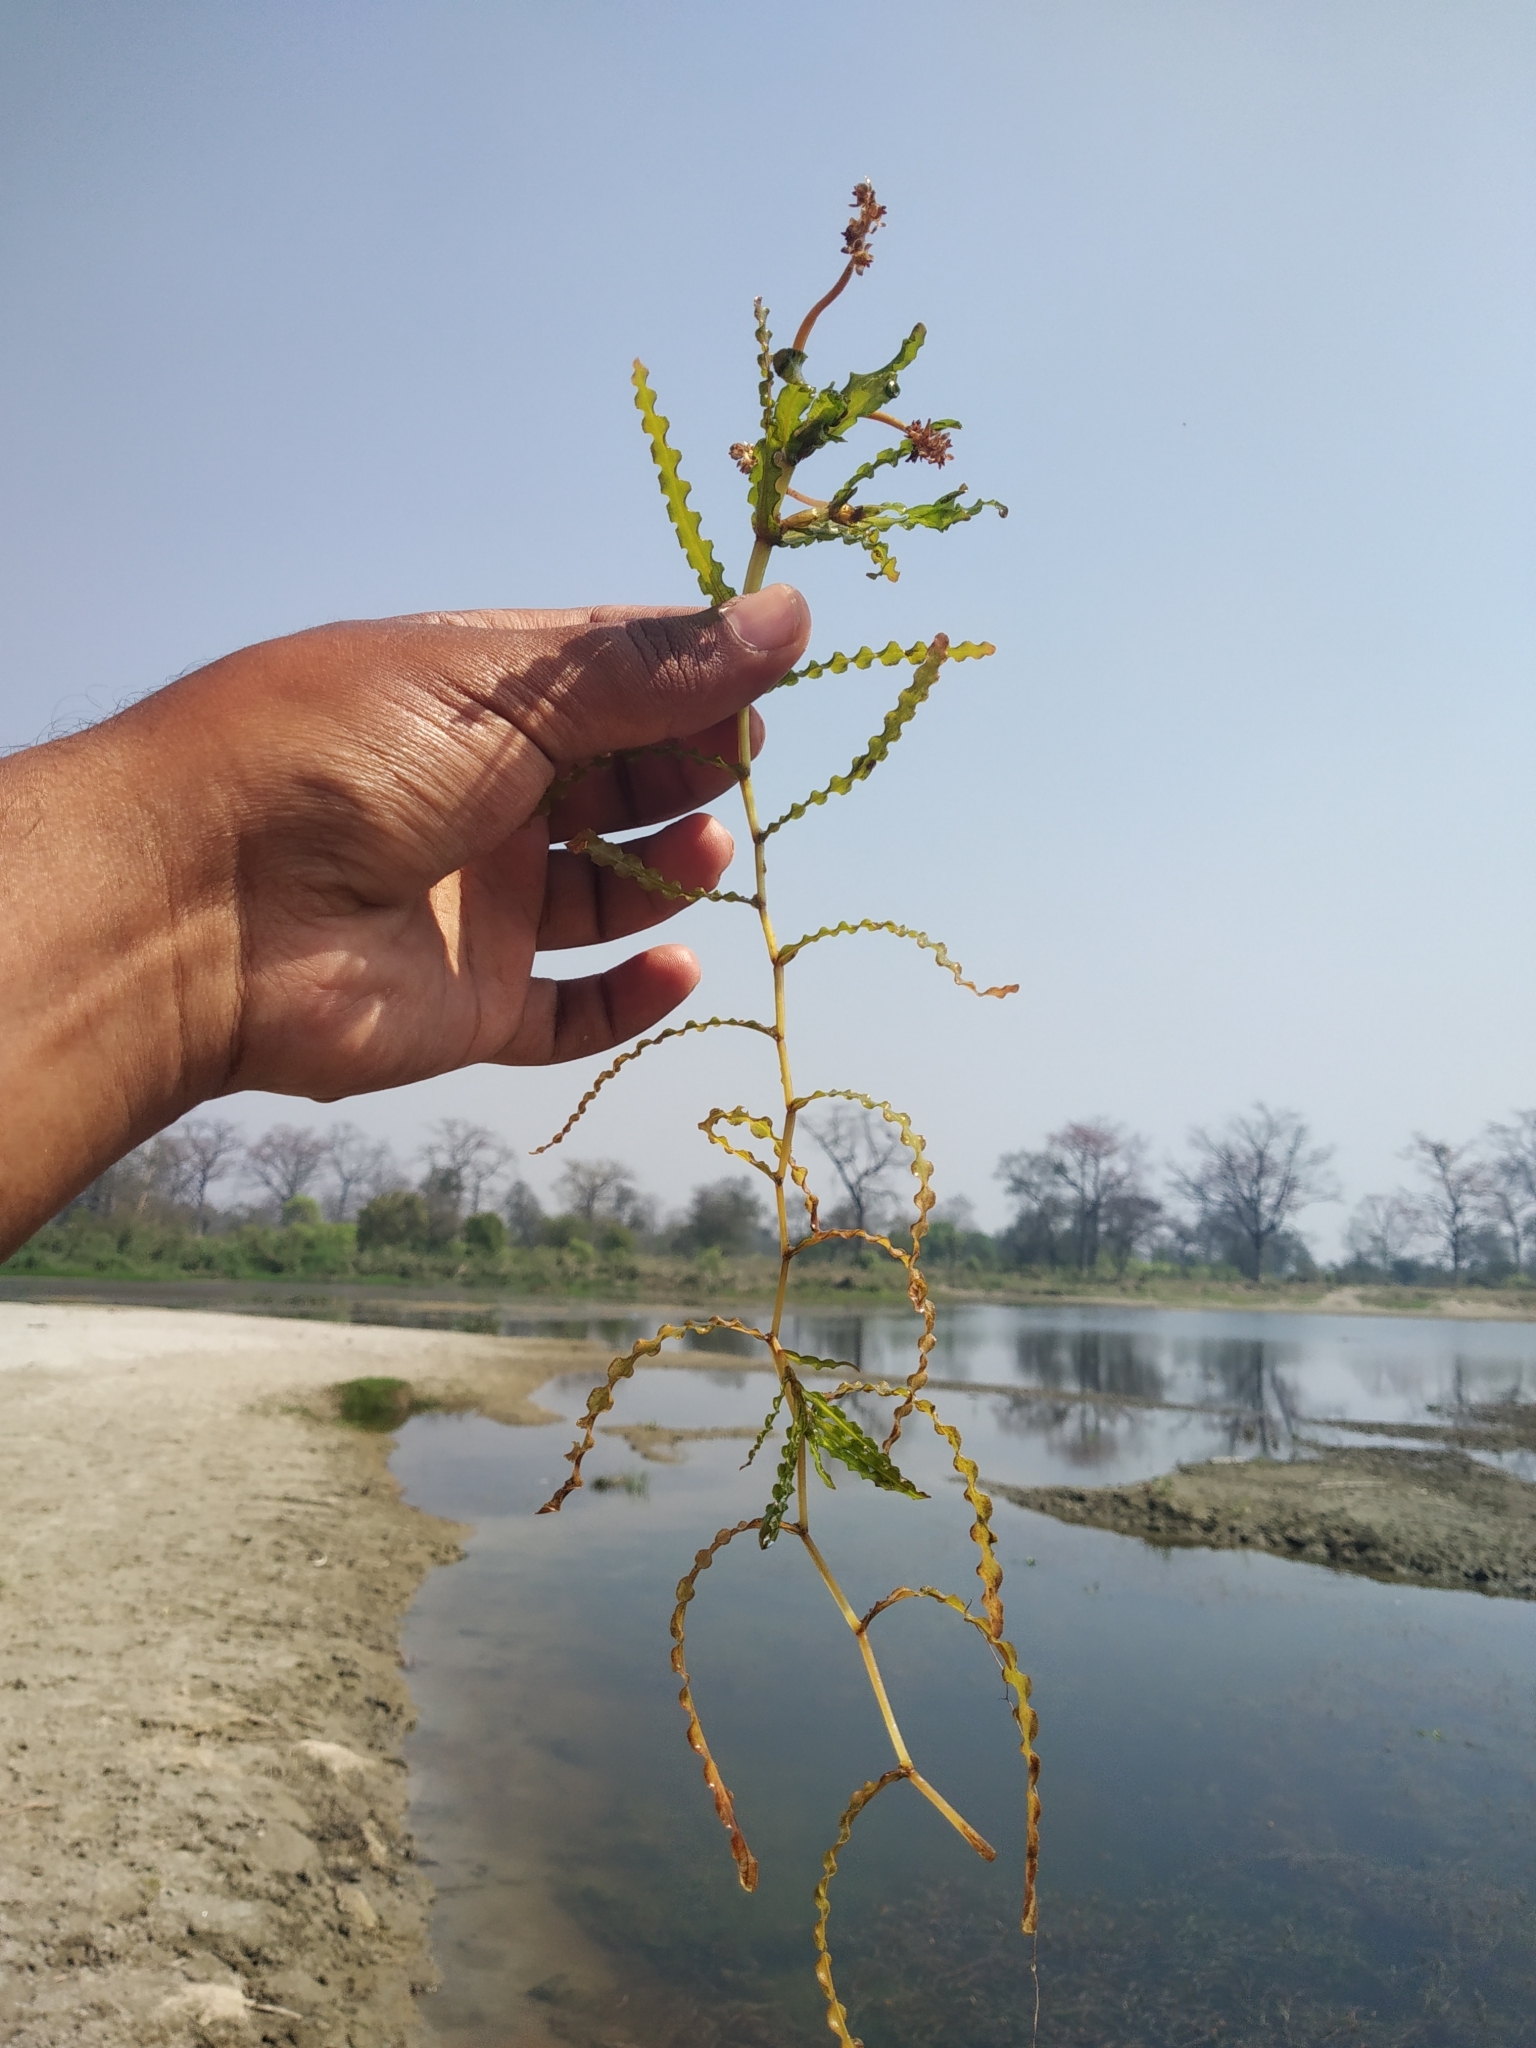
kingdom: Plantae
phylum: Tracheophyta
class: Liliopsida
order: Alismatales
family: Potamogetonaceae
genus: Potamogeton
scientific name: Potamogeton crispus
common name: Curled pondweed
